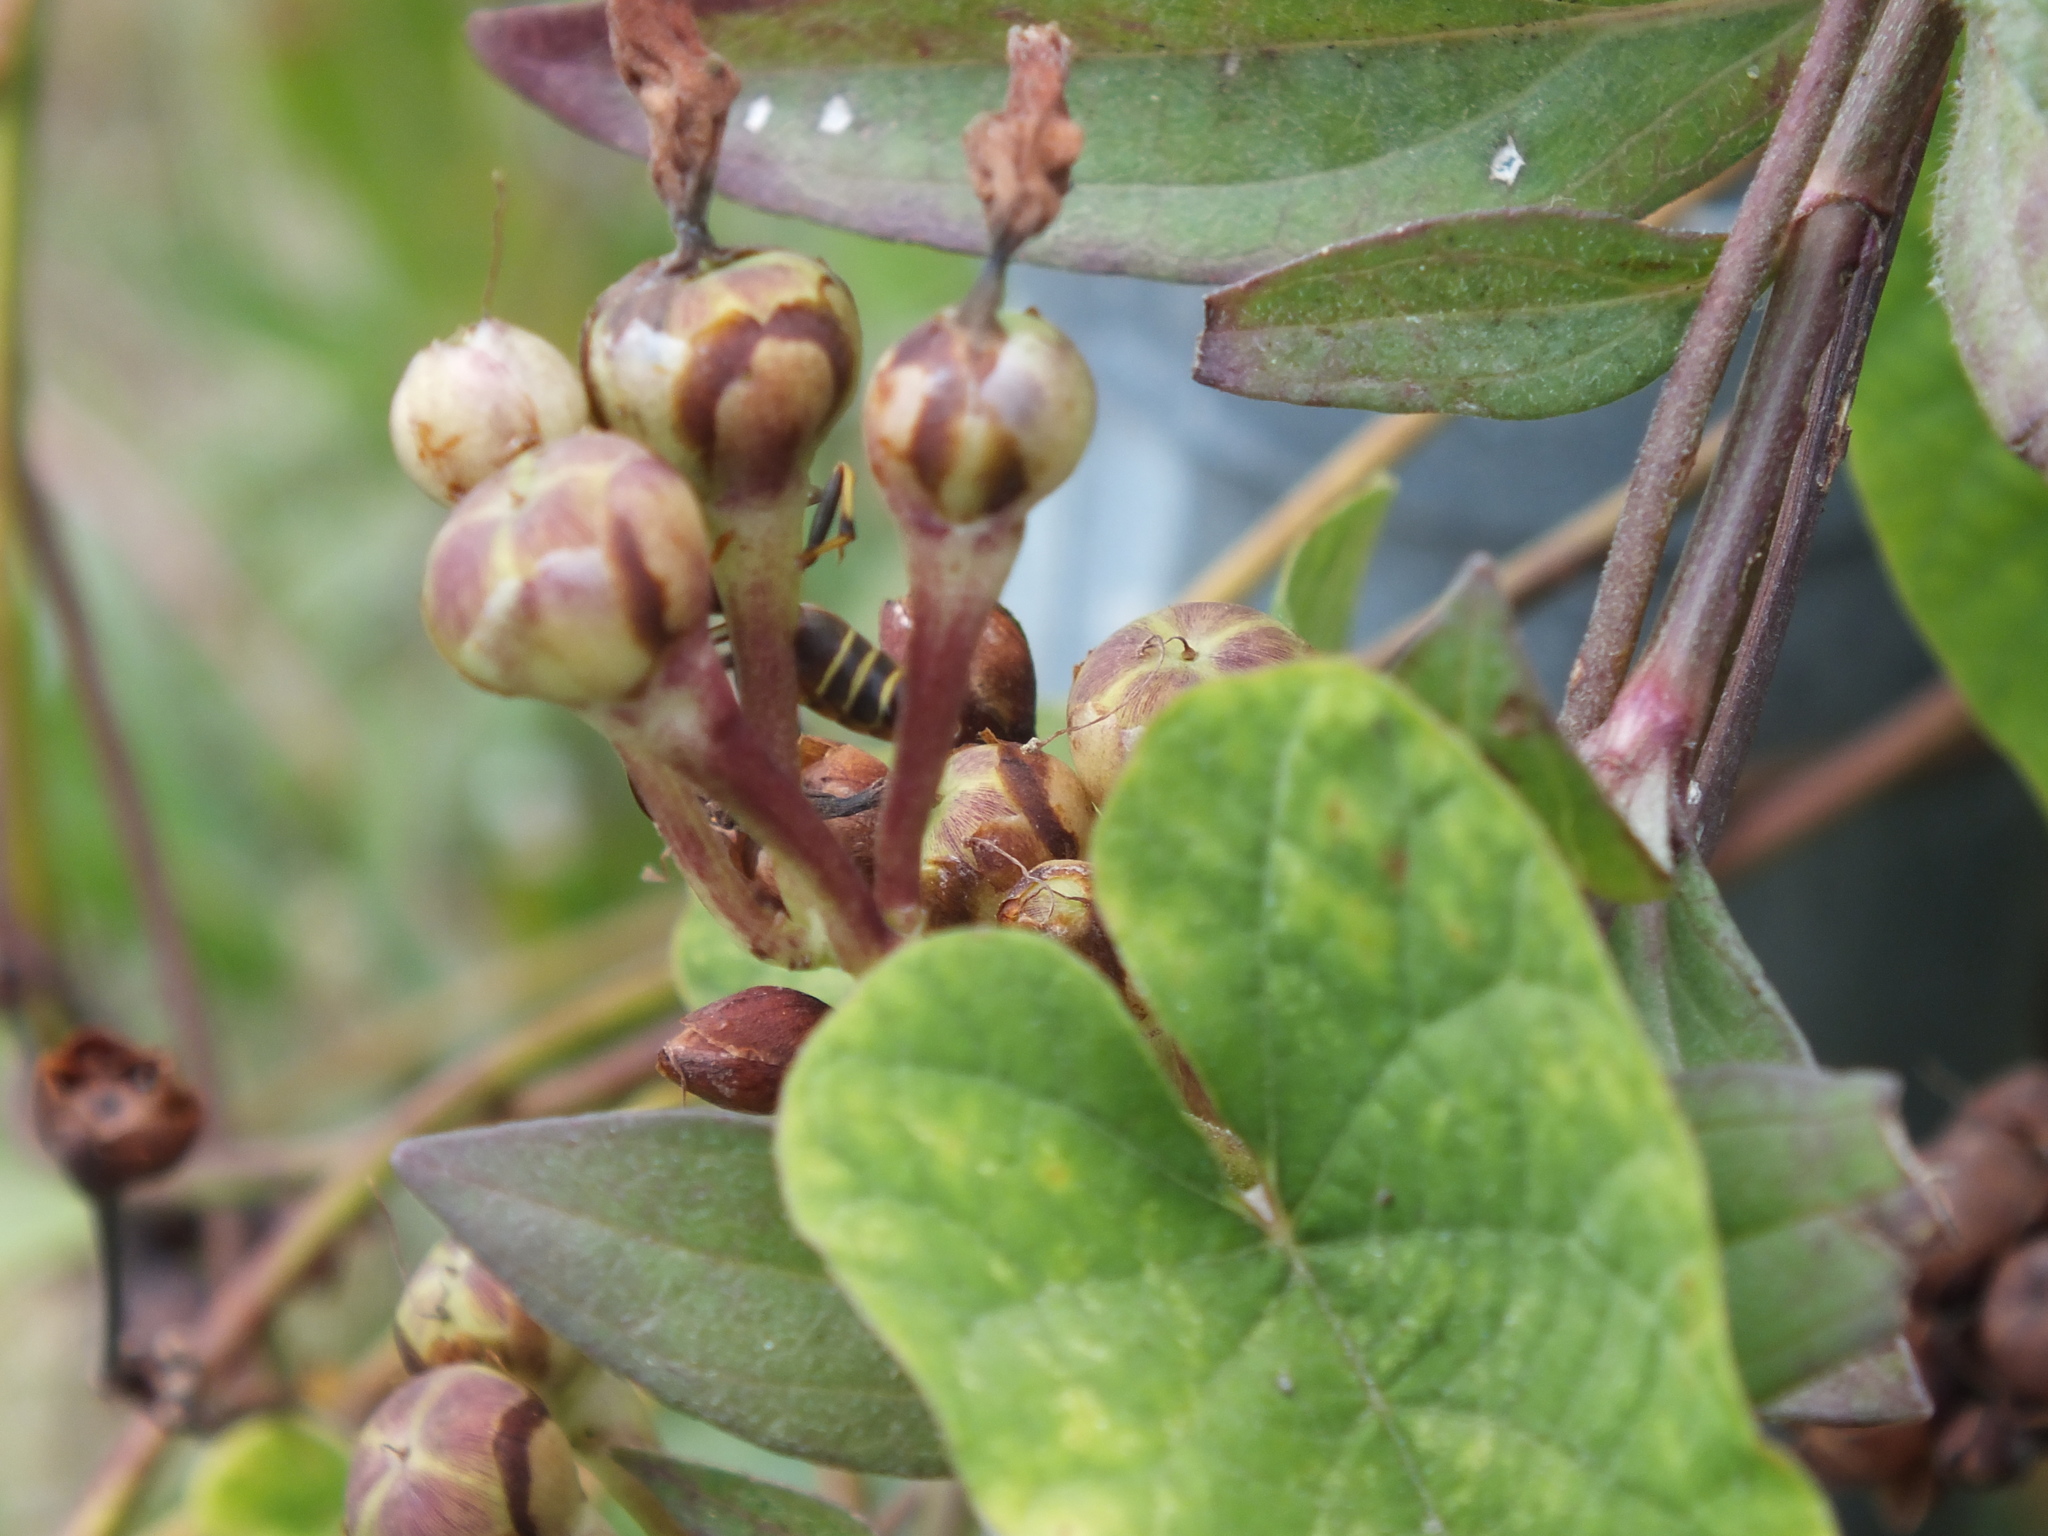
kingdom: Animalia
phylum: Arthropoda
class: Insecta
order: Hymenoptera
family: Eumenidae
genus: Polistes
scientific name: Polistes dorsalis
